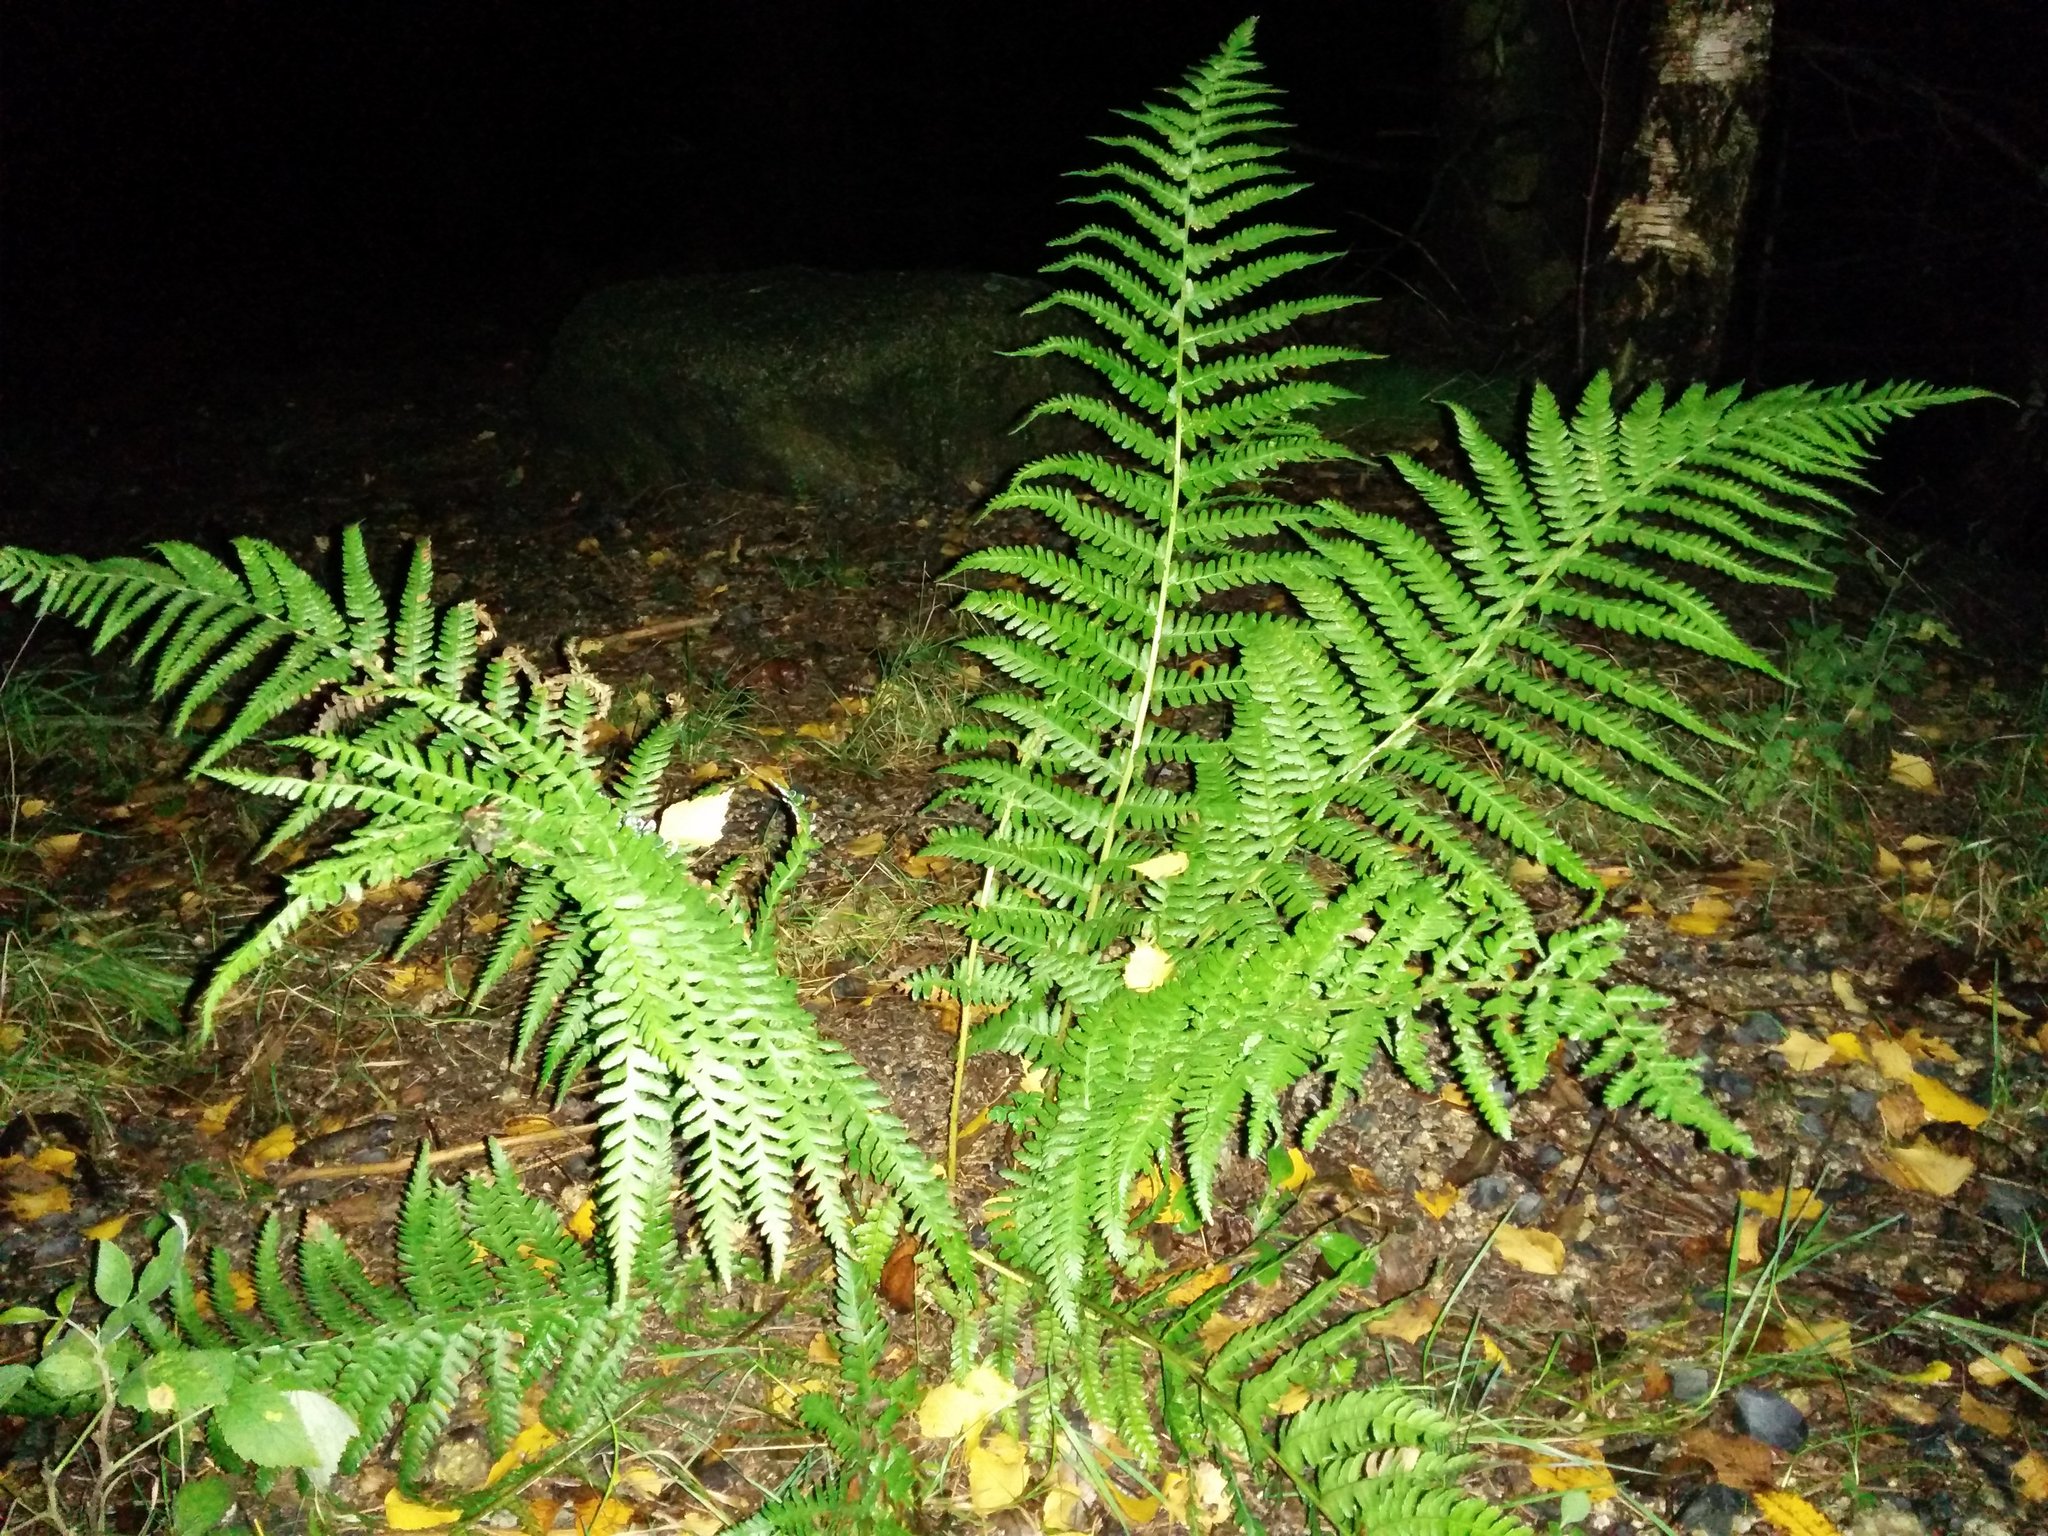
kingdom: Plantae
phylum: Tracheophyta
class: Polypodiopsida
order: Polypodiales
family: Dryopteridaceae
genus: Dryopteris
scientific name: Dryopteris filix-mas
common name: Male fern
